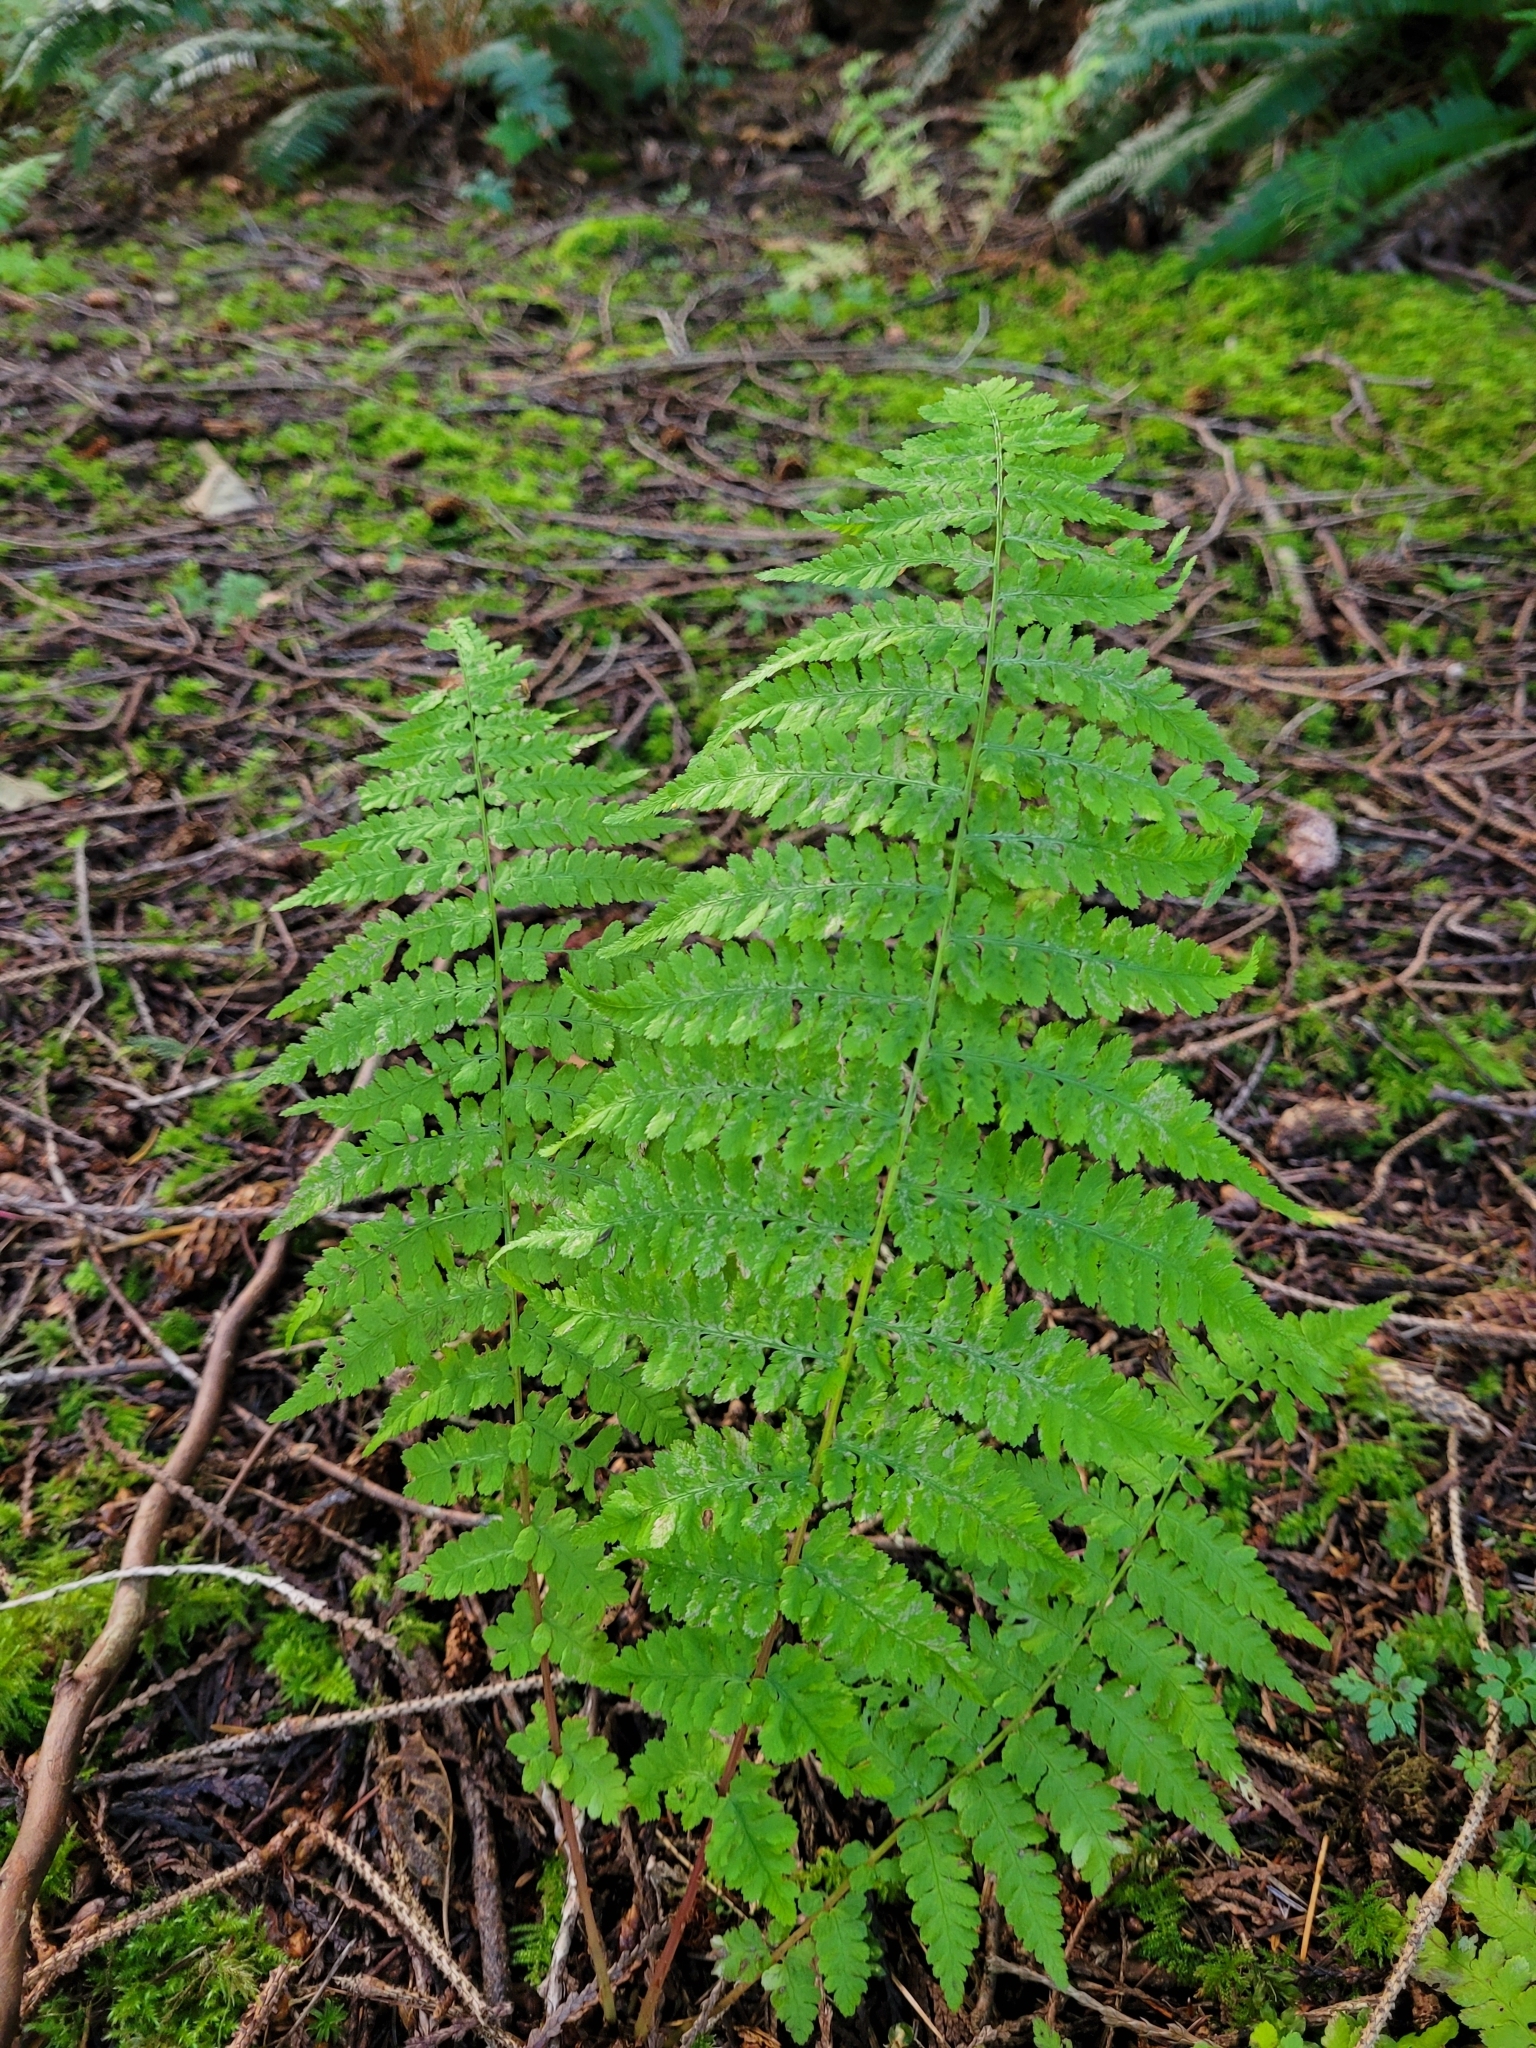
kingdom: Plantae
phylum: Tracheophyta
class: Polypodiopsida
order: Polypodiales
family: Athyriaceae
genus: Athyrium
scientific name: Athyrium filix-femina
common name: Lady fern
